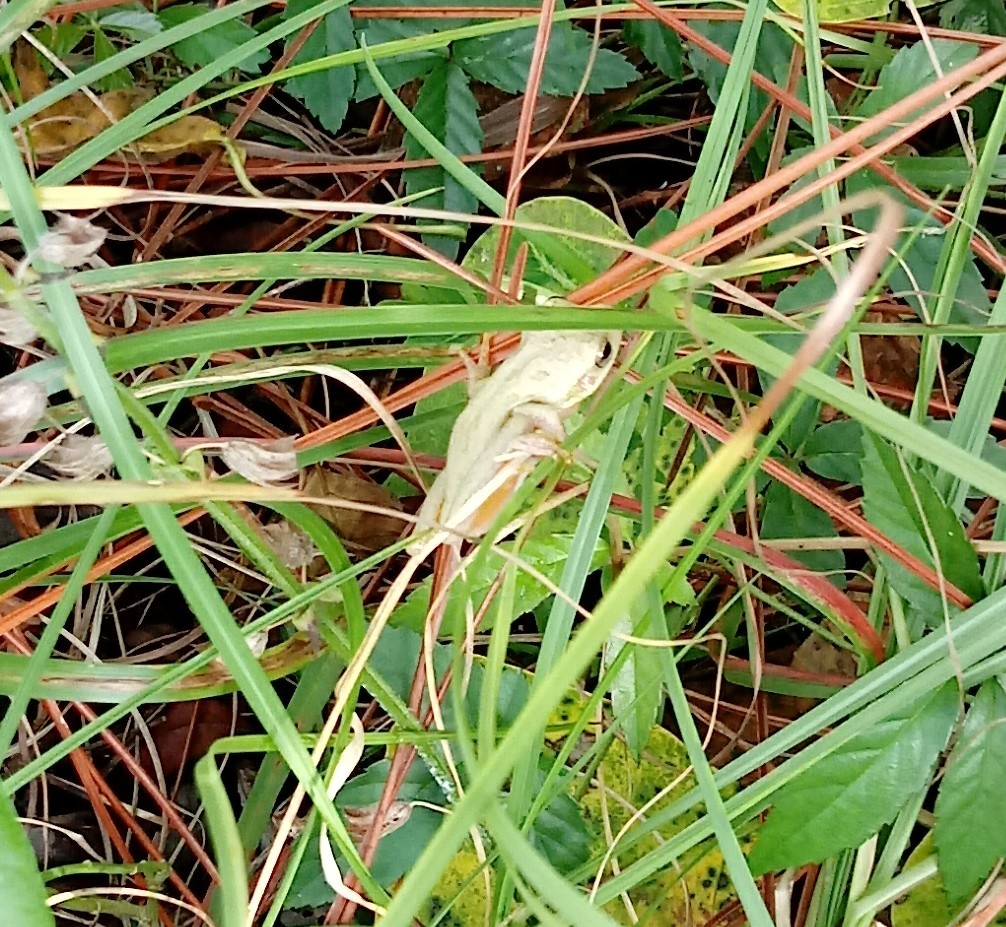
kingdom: Animalia
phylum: Chordata
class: Amphibia
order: Anura
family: Hylidae
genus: Dryophytes
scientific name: Dryophytes squirellus
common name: Squirrel treefrog
